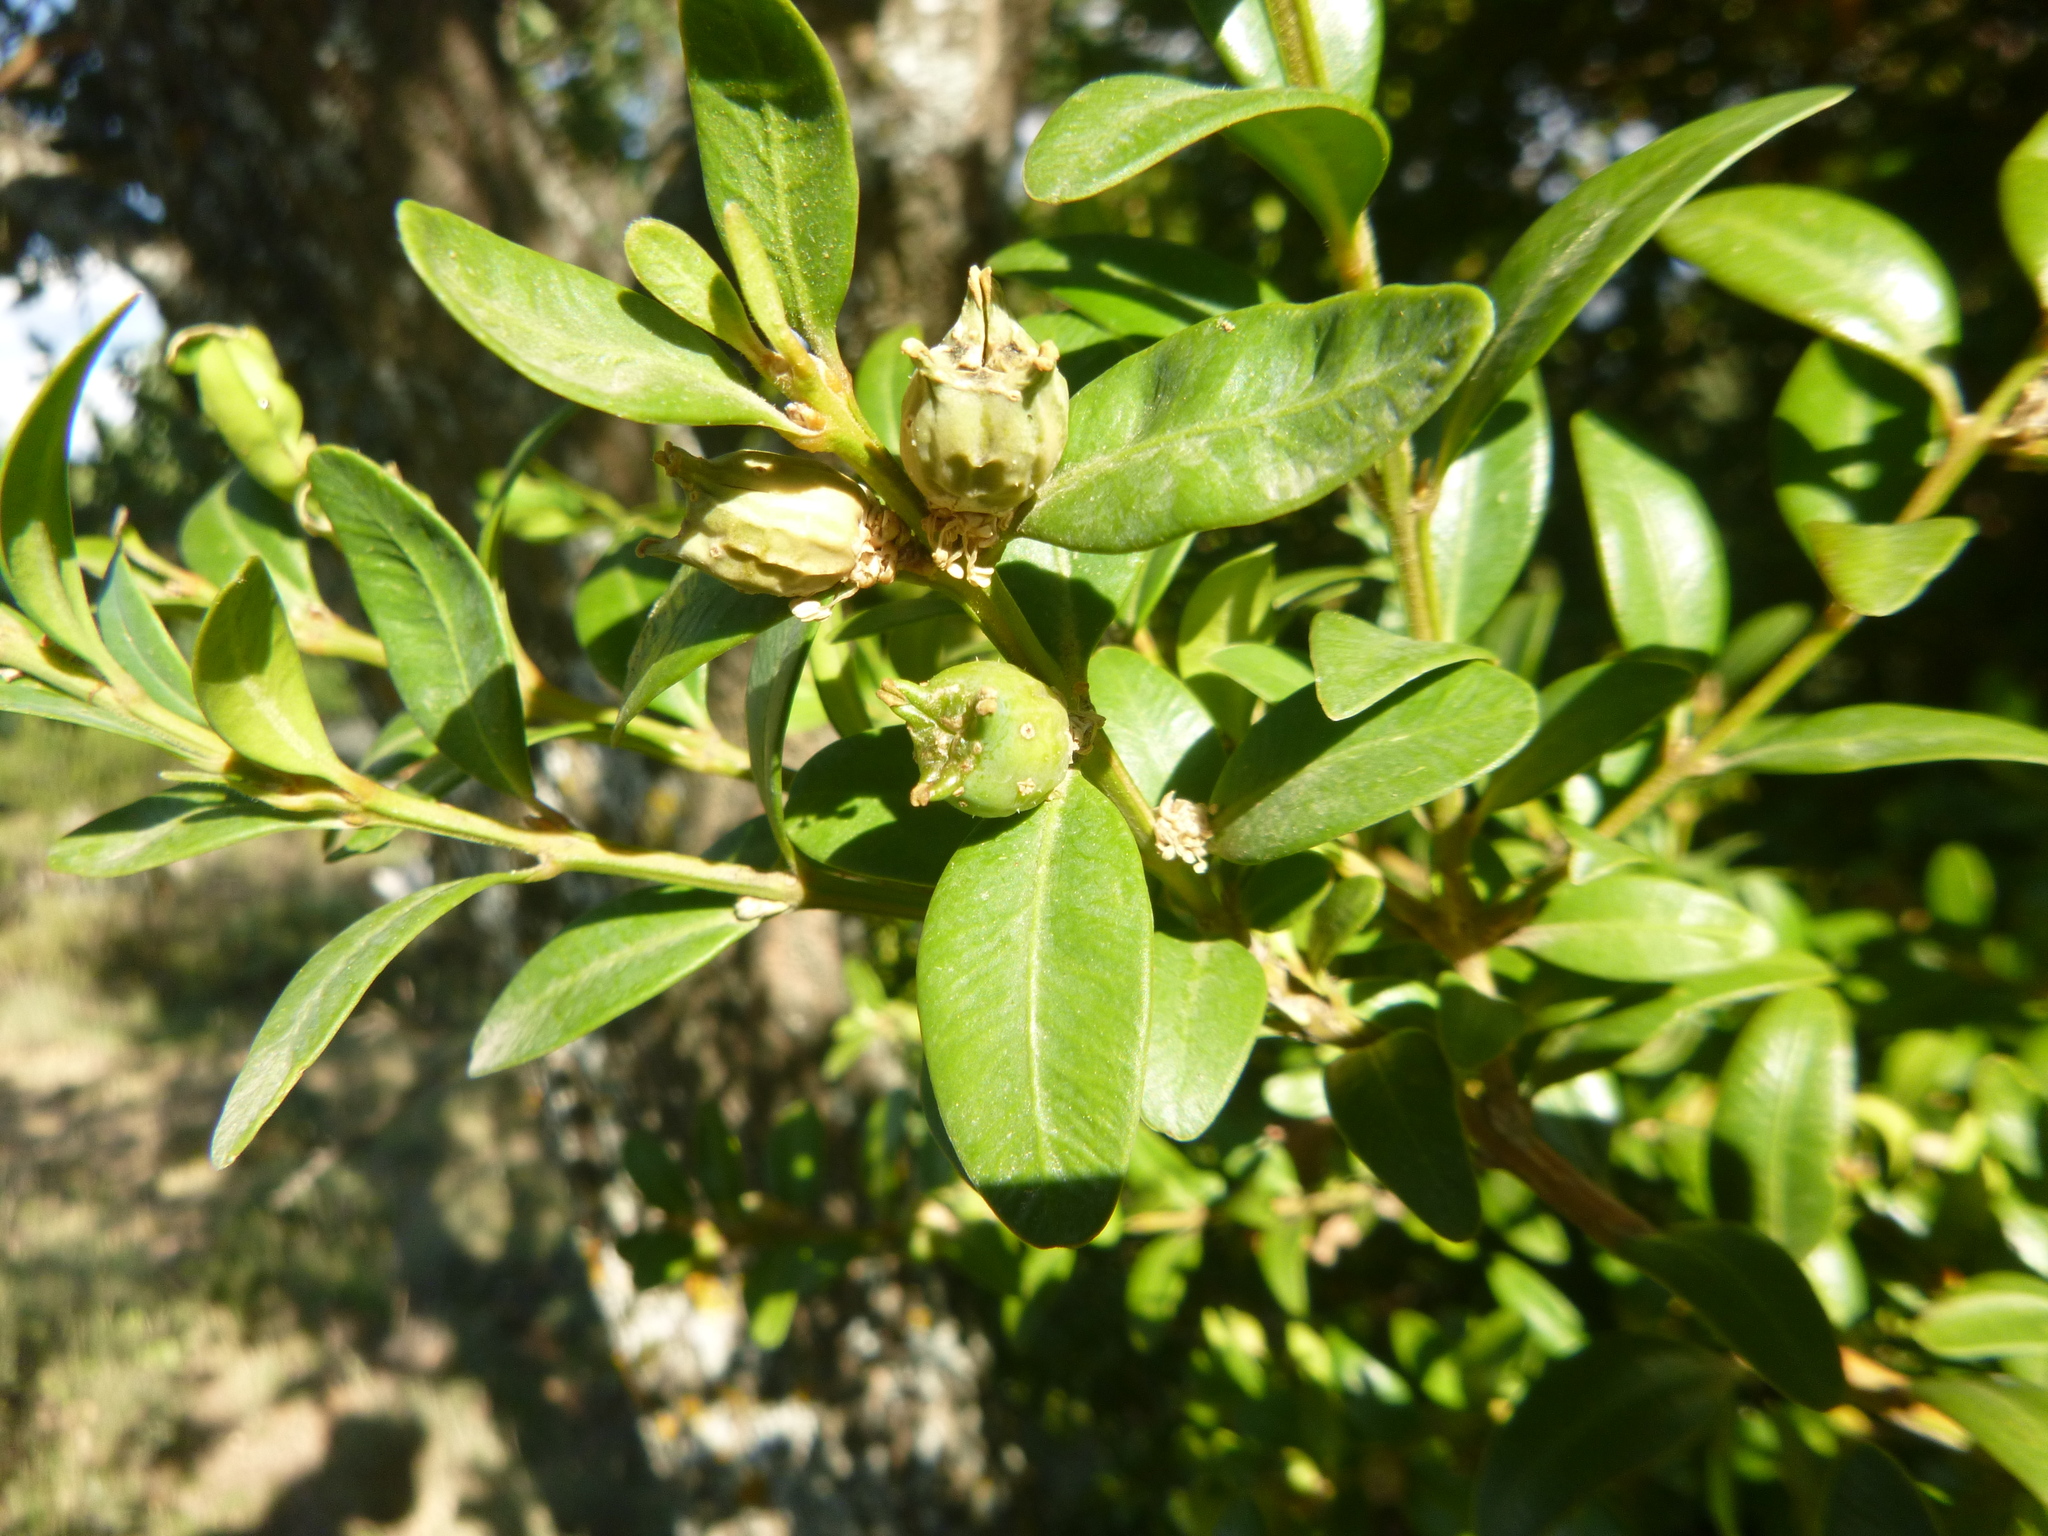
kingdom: Plantae
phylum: Tracheophyta
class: Magnoliopsida
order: Buxales
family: Buxaceae
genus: Buxus
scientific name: Buxus sempervirens
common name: Box
